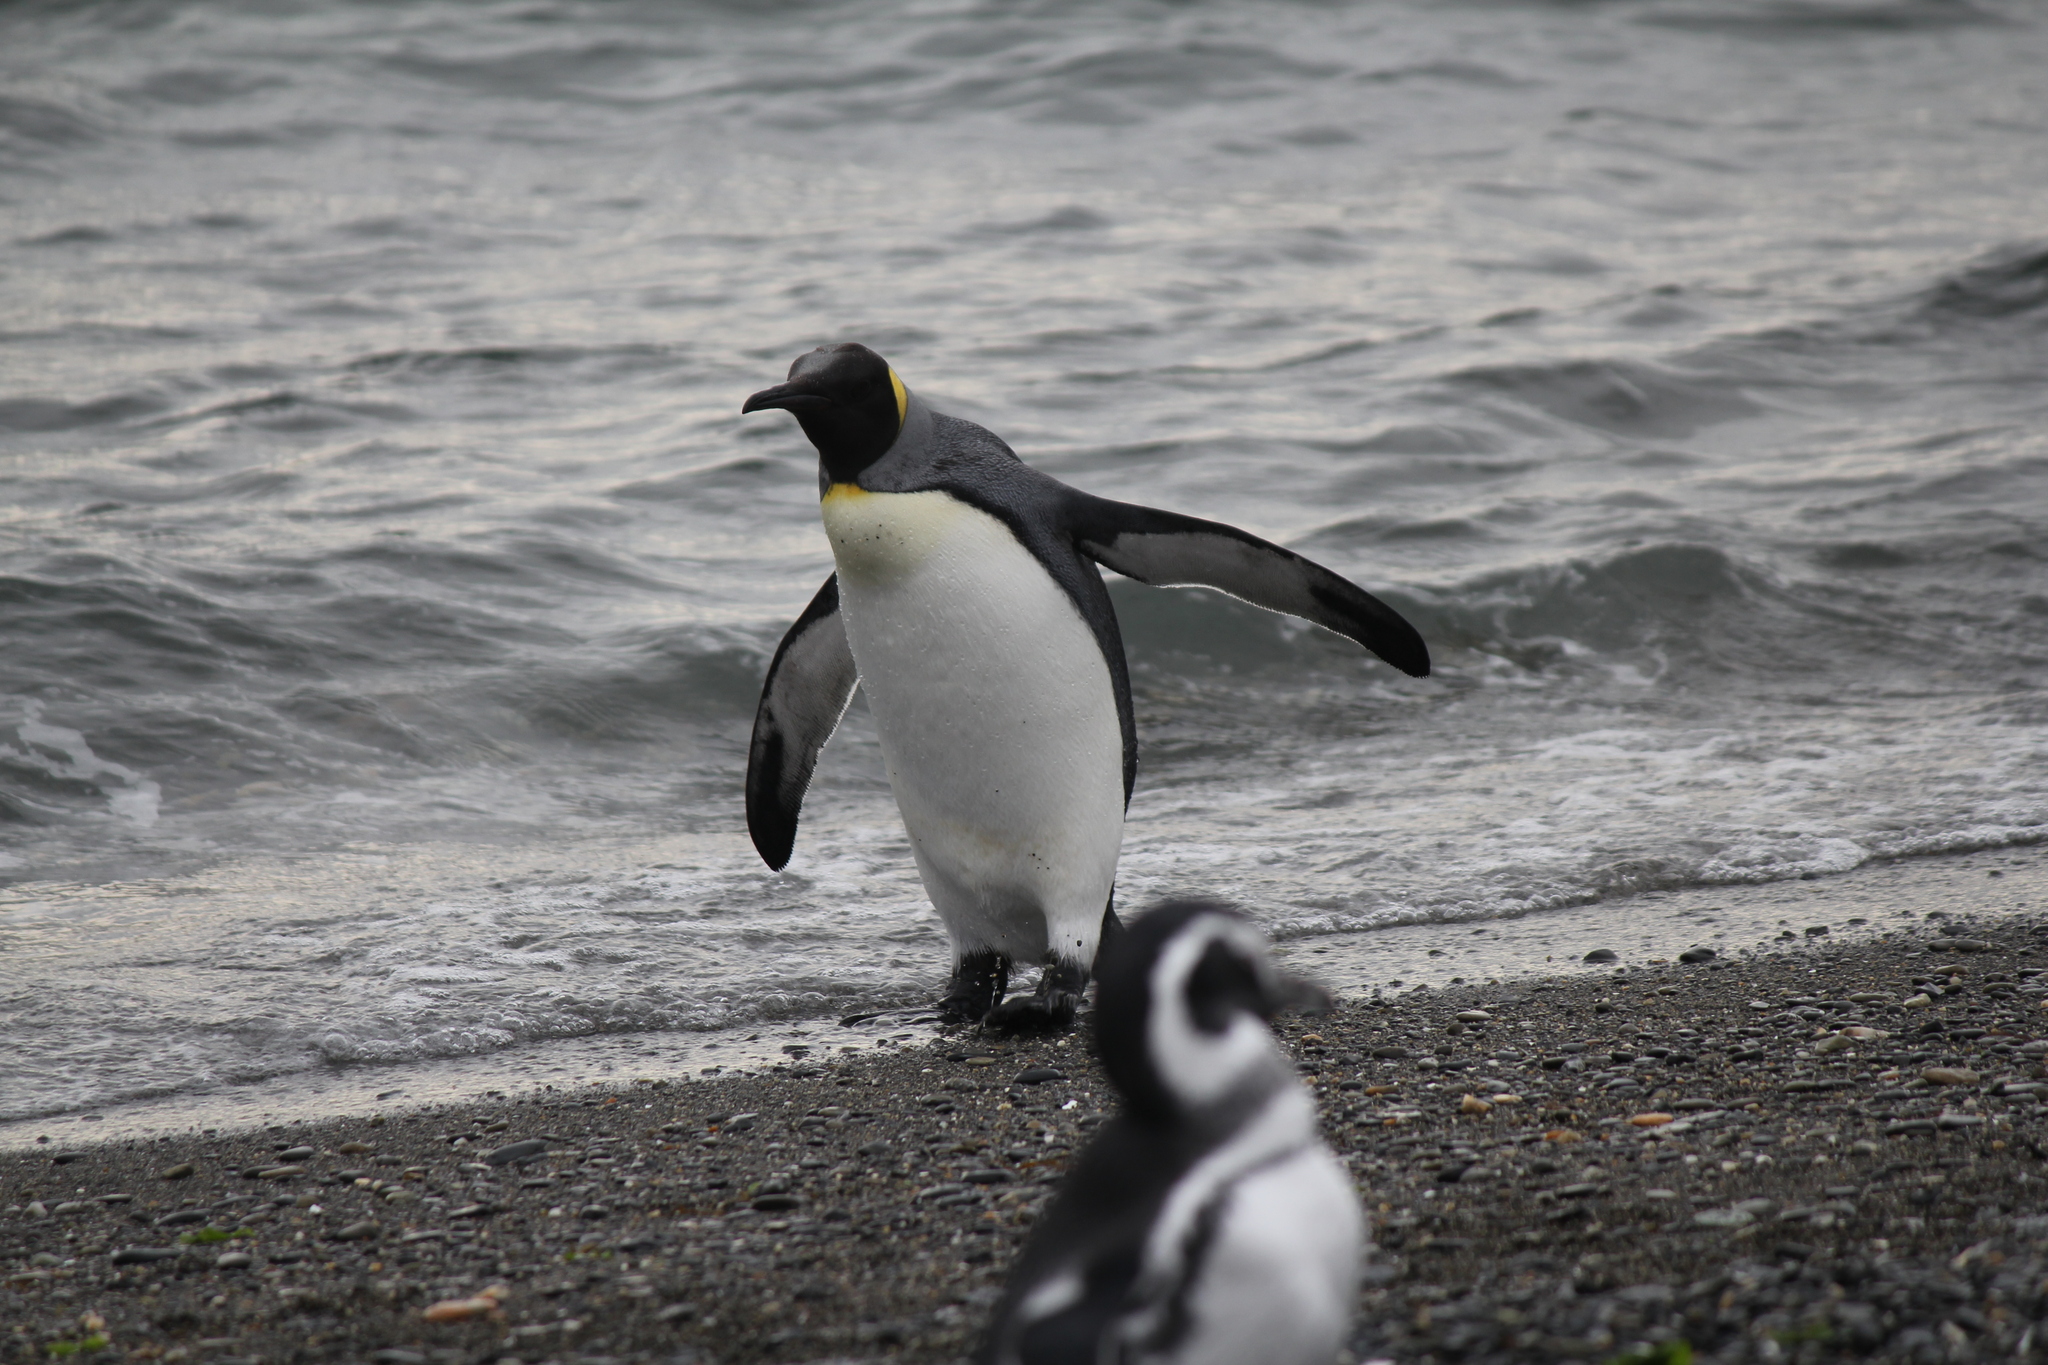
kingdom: Animalia
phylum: Chordata
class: Aves
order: Sphenisciformes
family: Spheniscidae
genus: Aptenodytes
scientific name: Aptenodytes patagonicus
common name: King penguin
